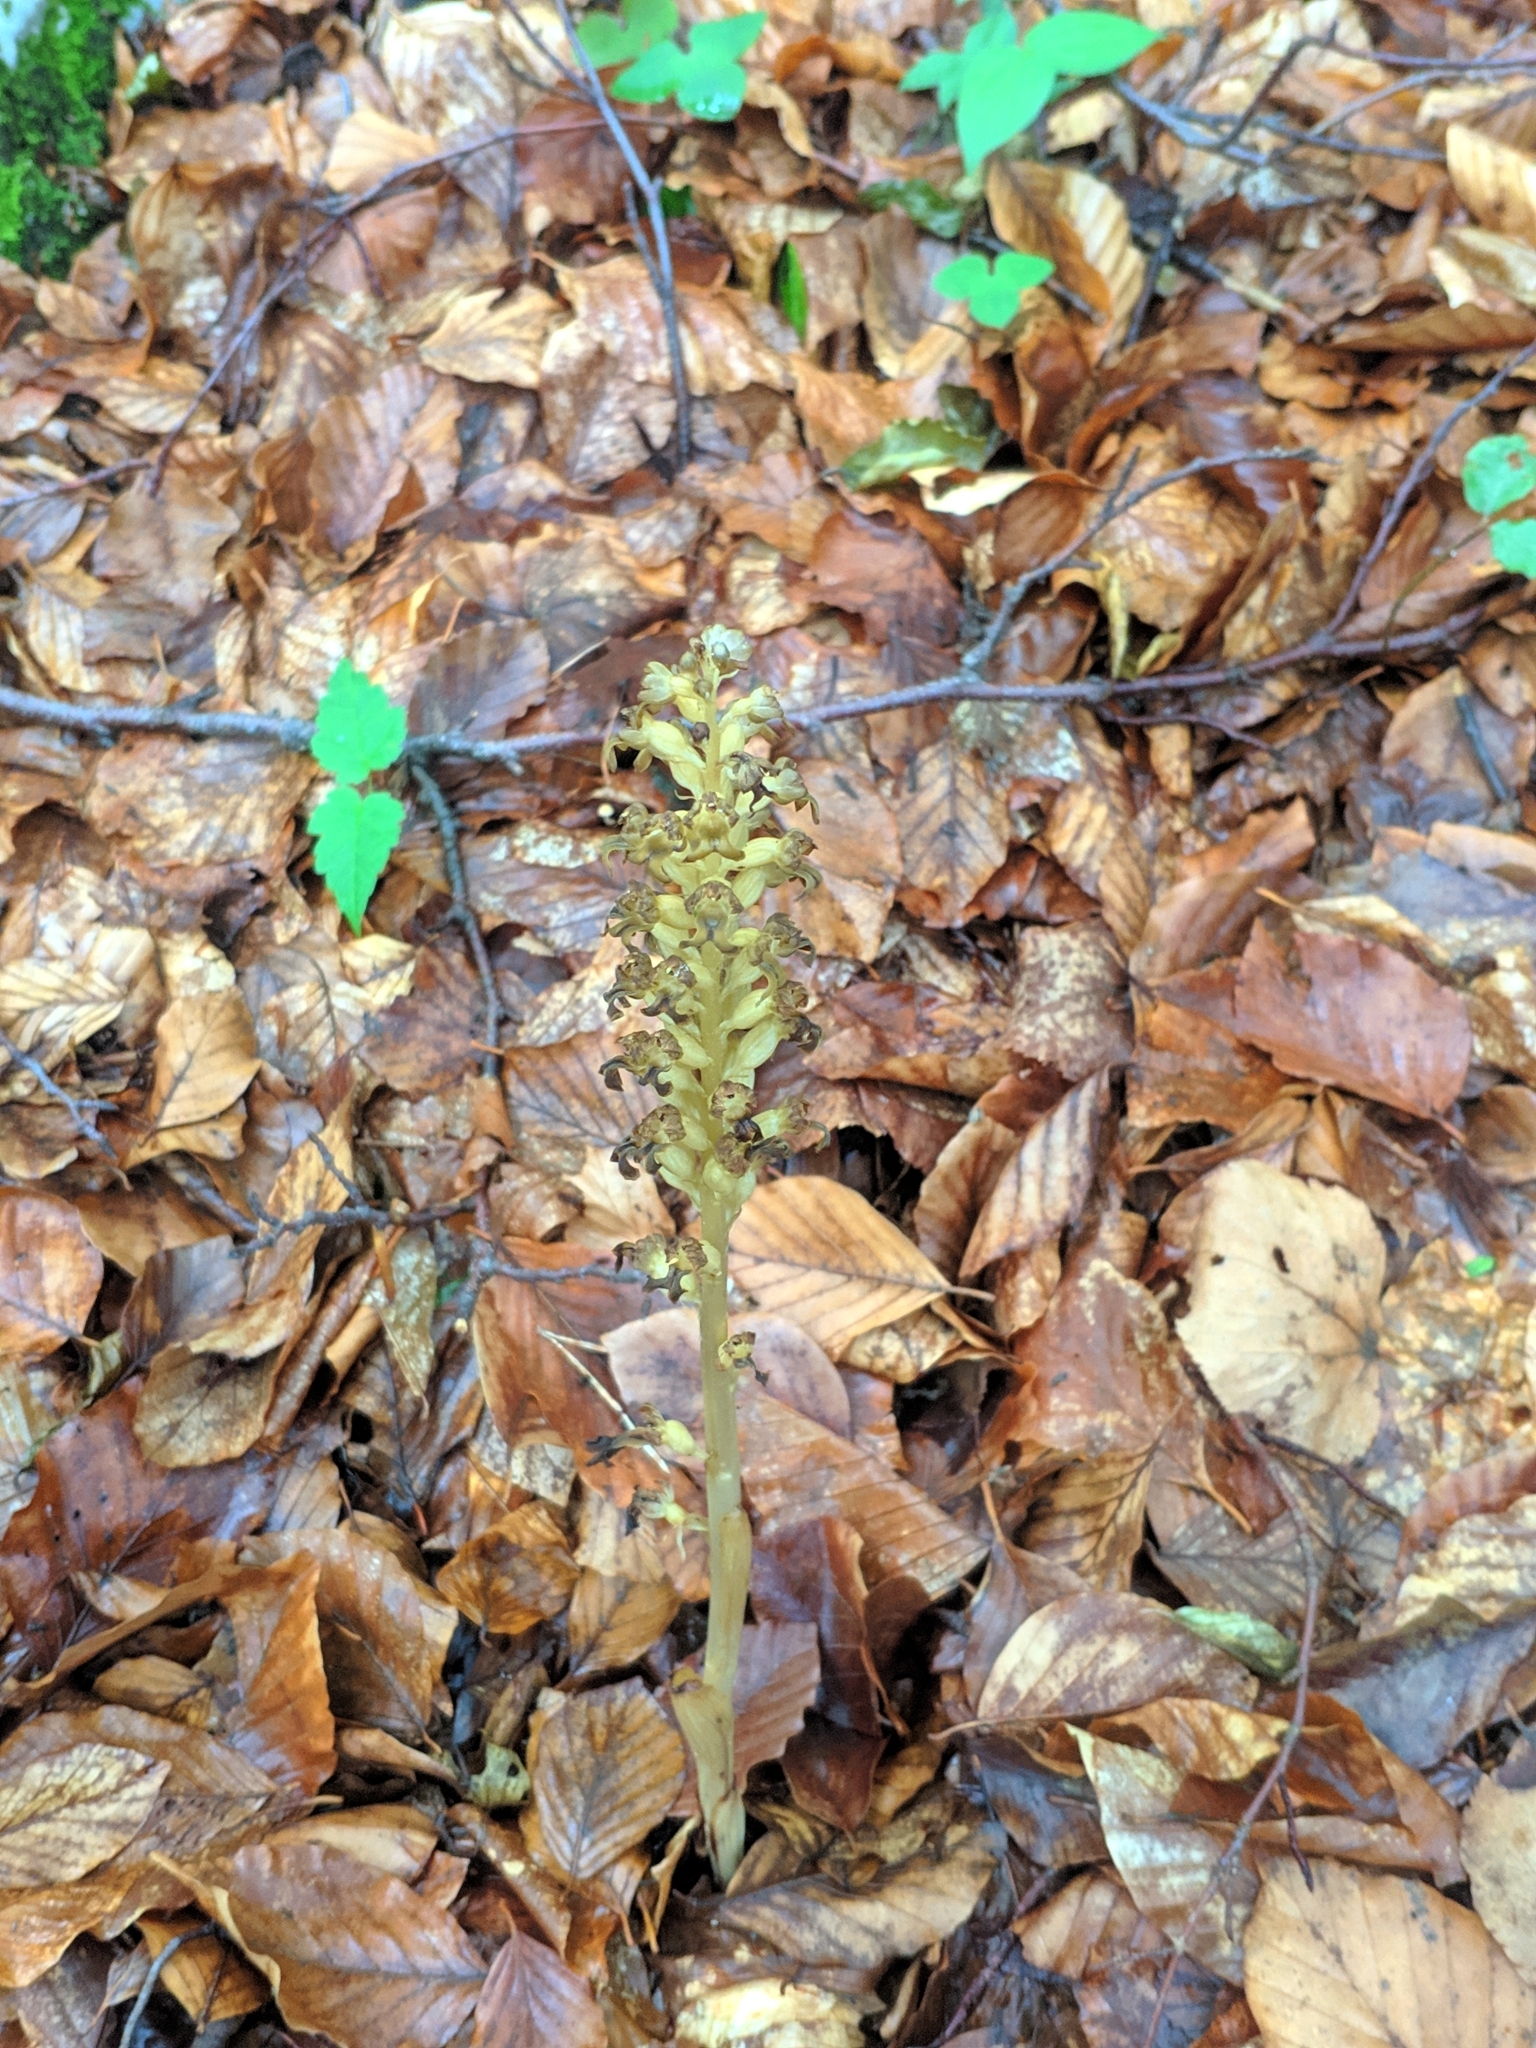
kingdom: Plantae
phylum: Tracheophyta
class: Liliopsida
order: Asparagales
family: Orchidaceae
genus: Neottia
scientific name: Neottia nidus-avis
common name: Bird's-nest orchid
